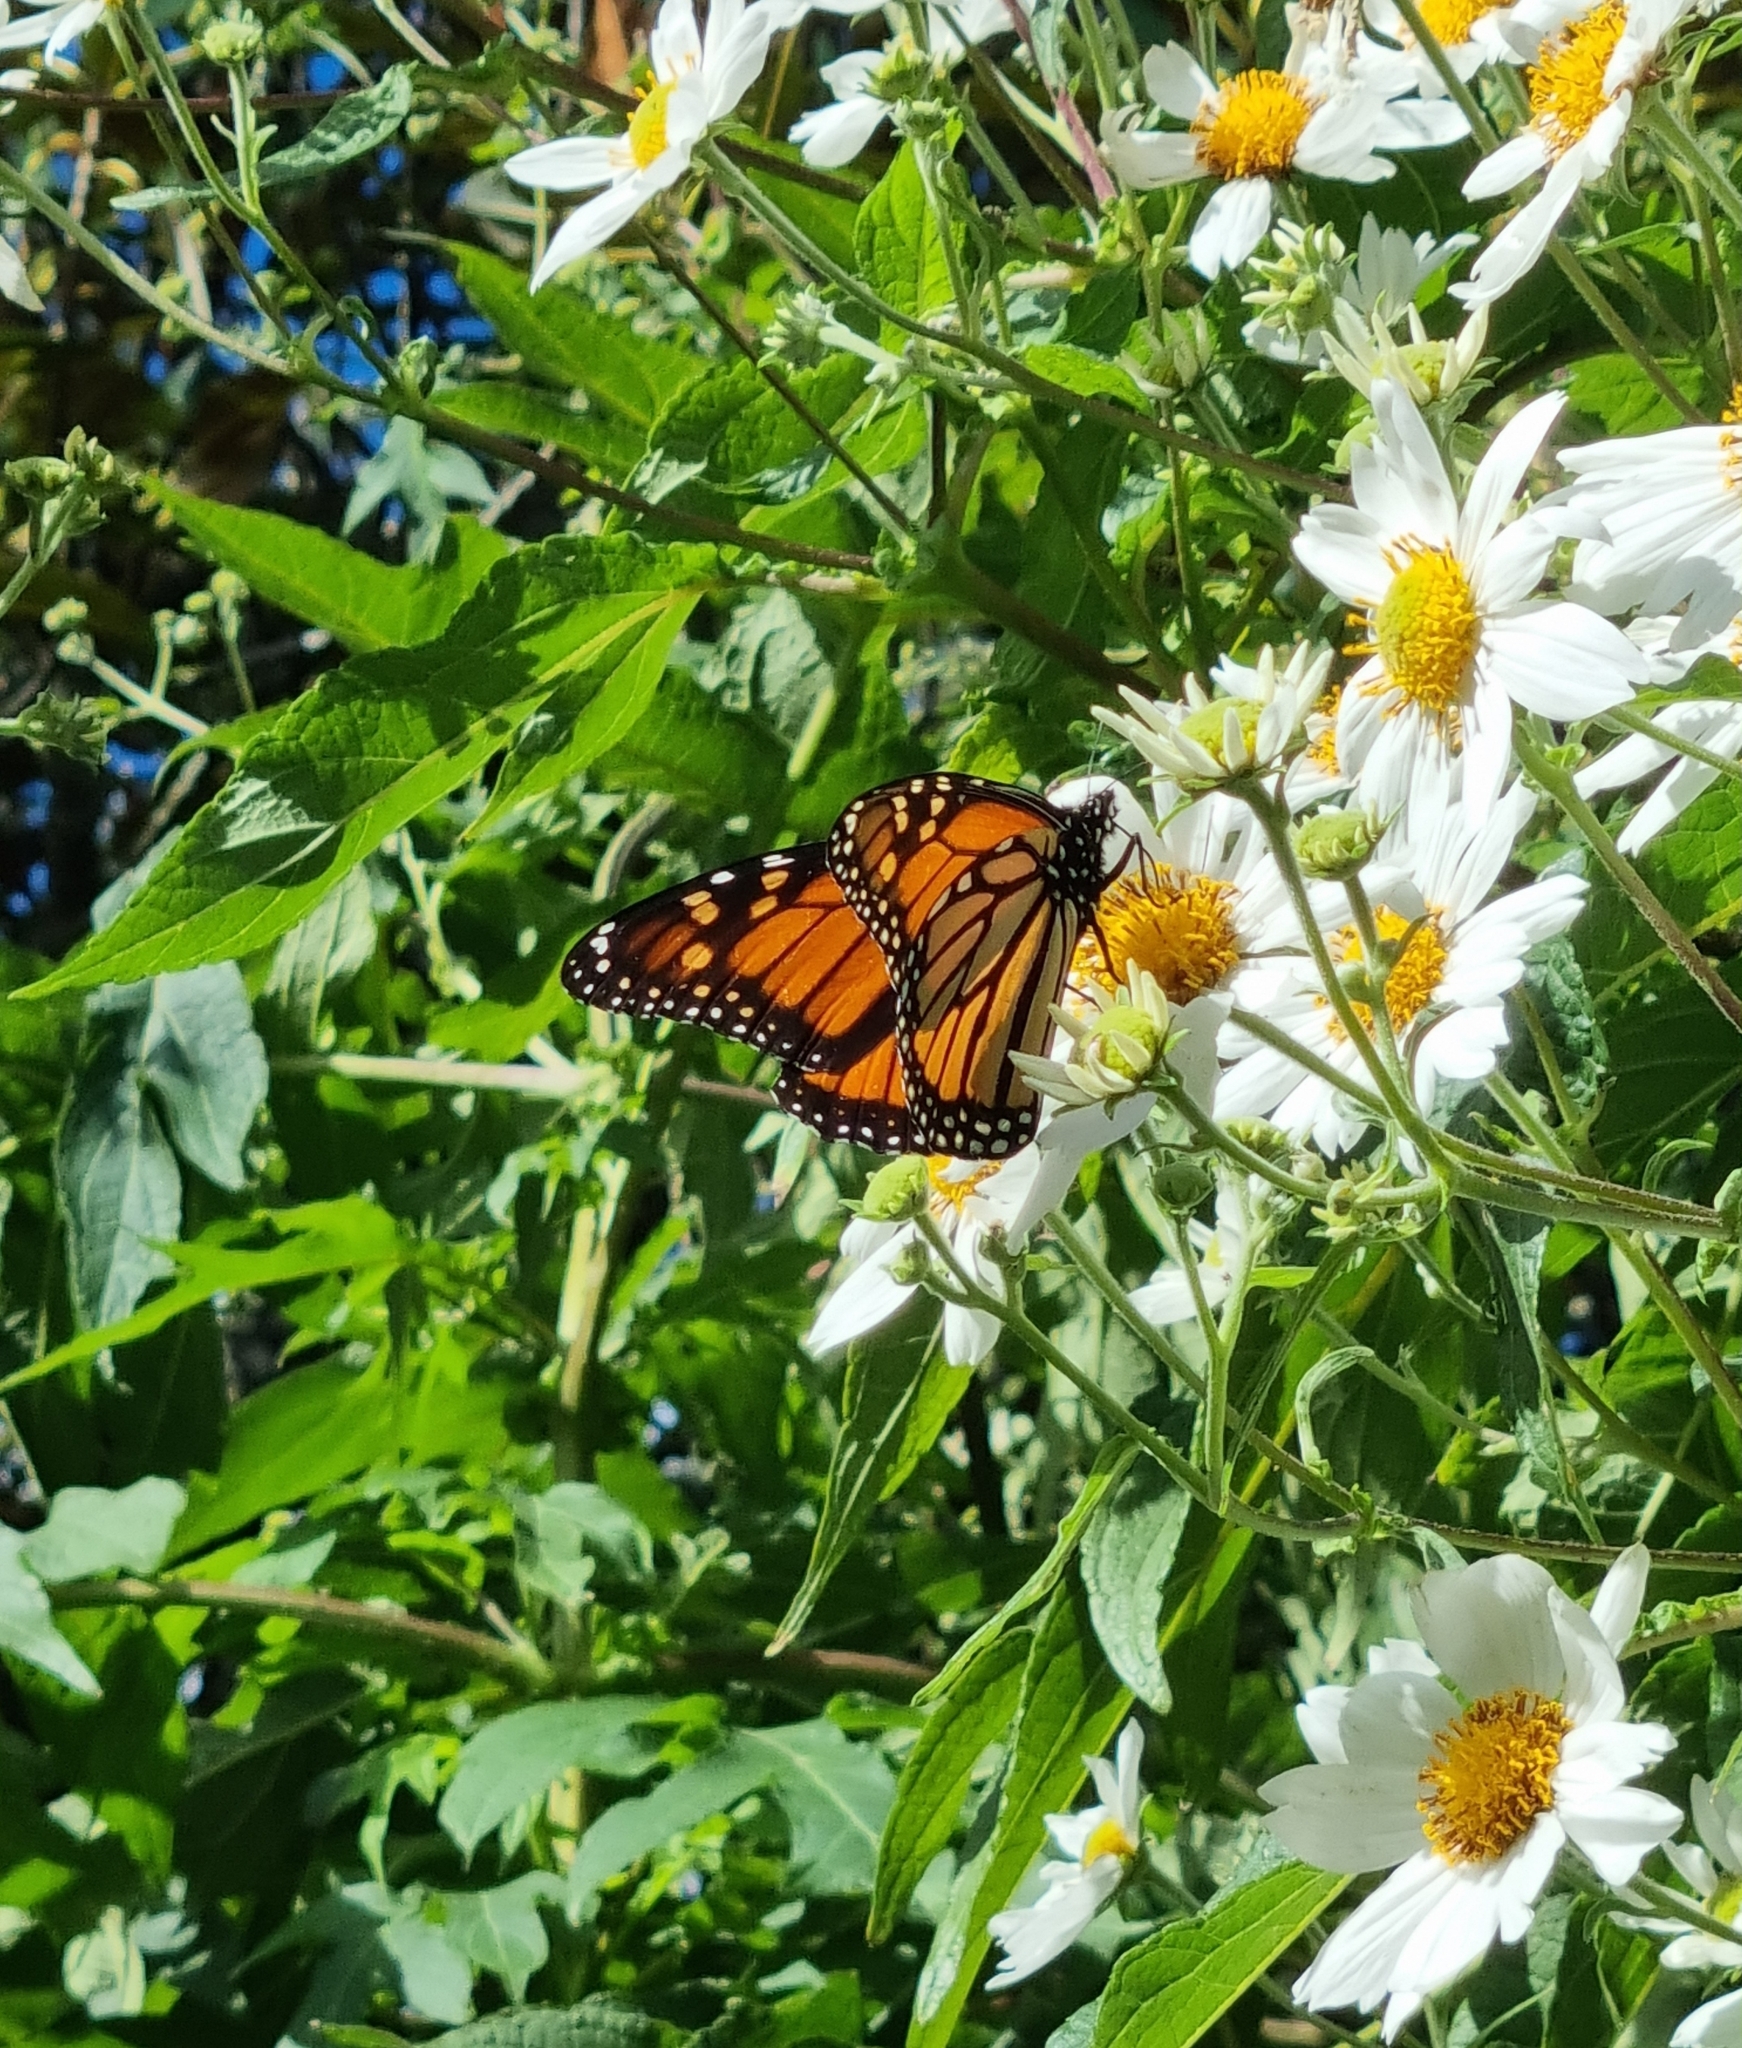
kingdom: Animalia
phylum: Arthropoda
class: Insecta
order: Lepidoptera
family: Nymphalidae
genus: Danaus
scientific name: Danaus plexippus
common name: Monarch
